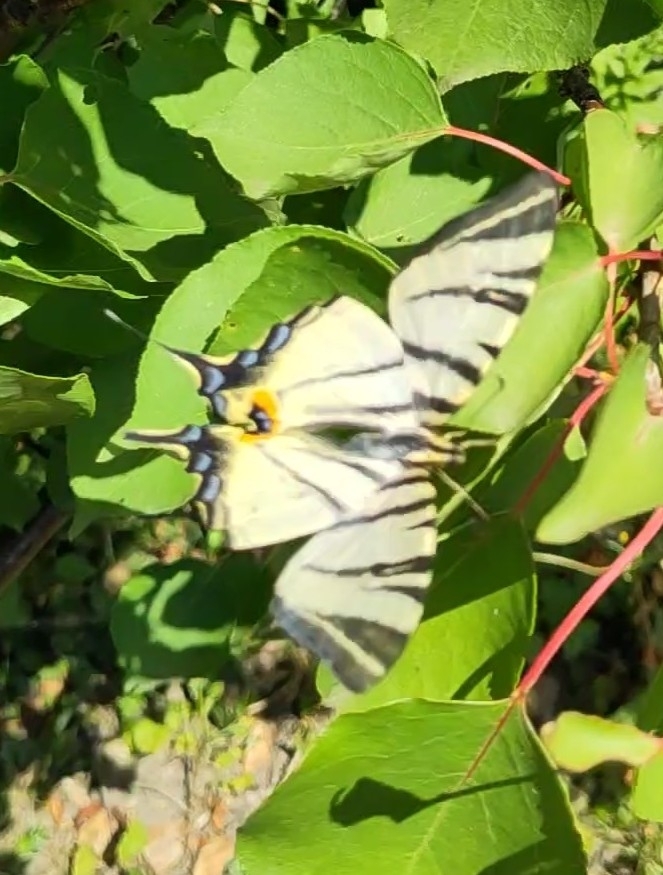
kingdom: Animalia
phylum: Arthropoda
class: Insecta
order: Lepidoptera
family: Papilionidae
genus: Iphiclides
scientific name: Iphiclides podalirius
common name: Scarce swallowtail
